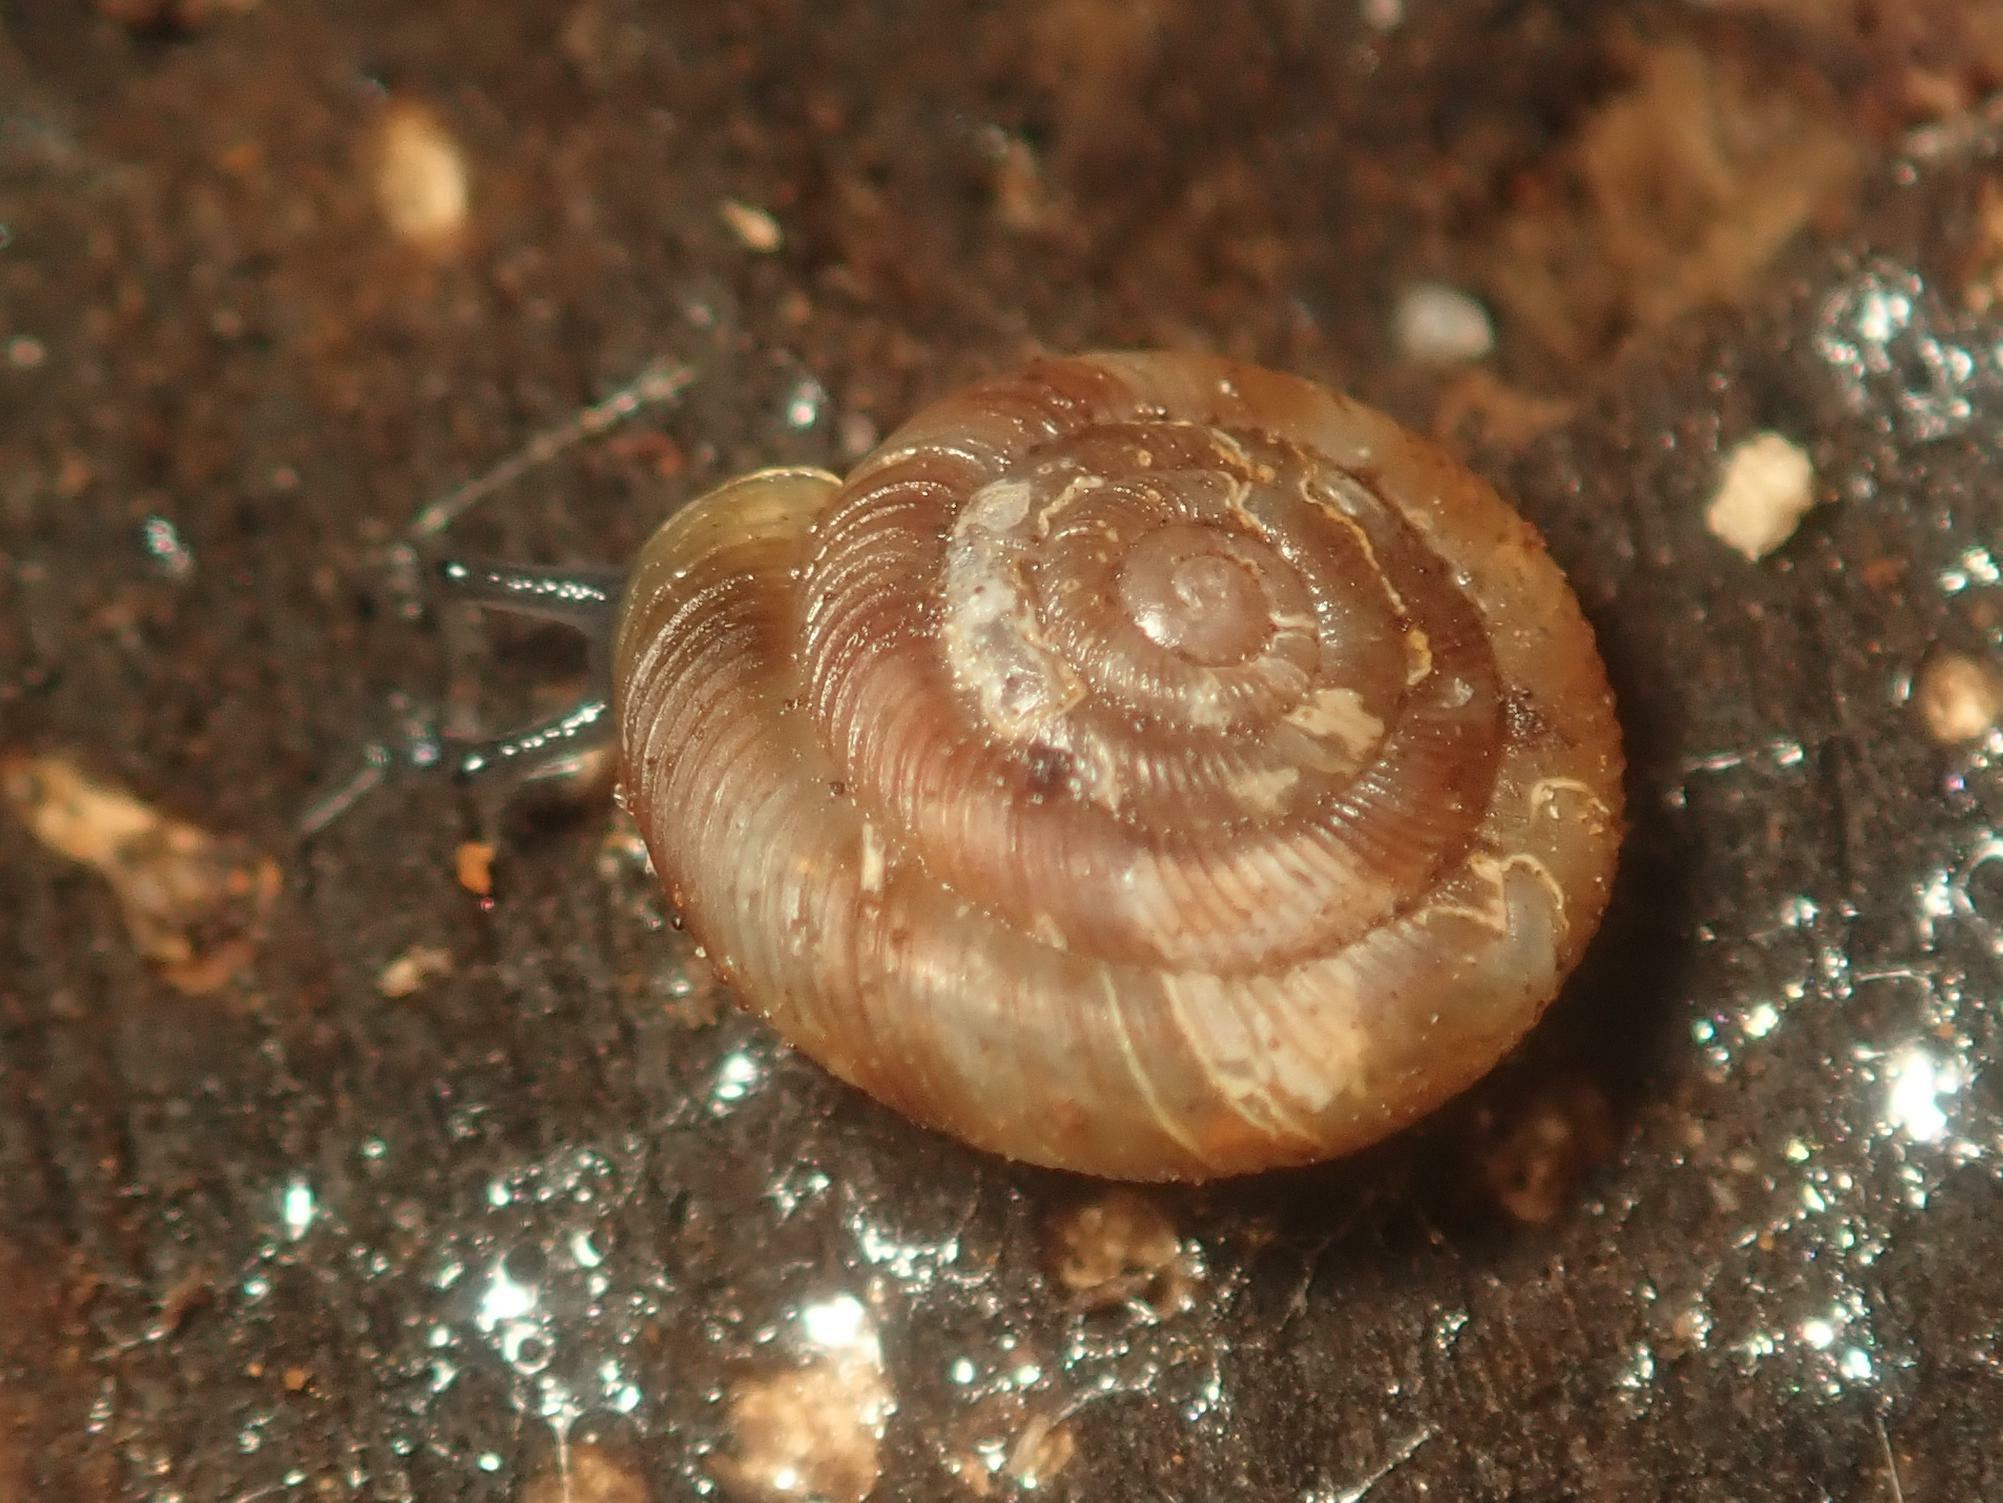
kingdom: Animalia
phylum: Mollusca
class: Gastropoda
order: Stylommatophora
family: Discidae
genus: Discus
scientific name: Discus rotundatus
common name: Rounded snail
